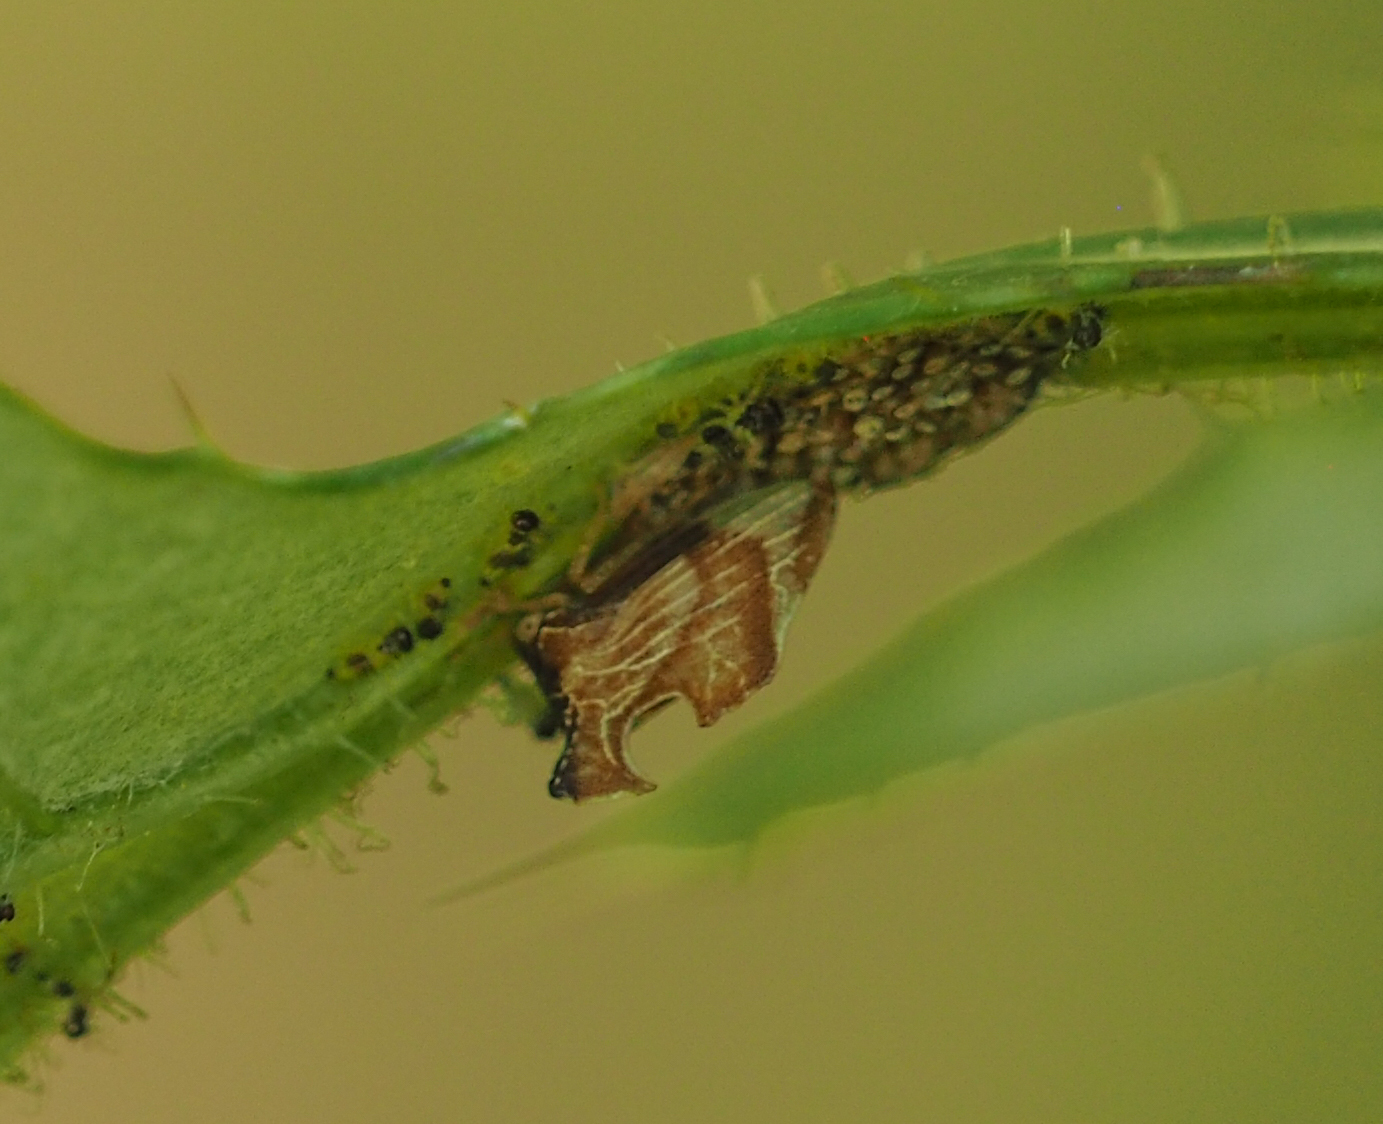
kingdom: Animalia
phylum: Arthropoda
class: Insecta
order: Hemiptera
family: Membracidae
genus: Entylia
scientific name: Entylia carinata
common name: Keeled treehopper
